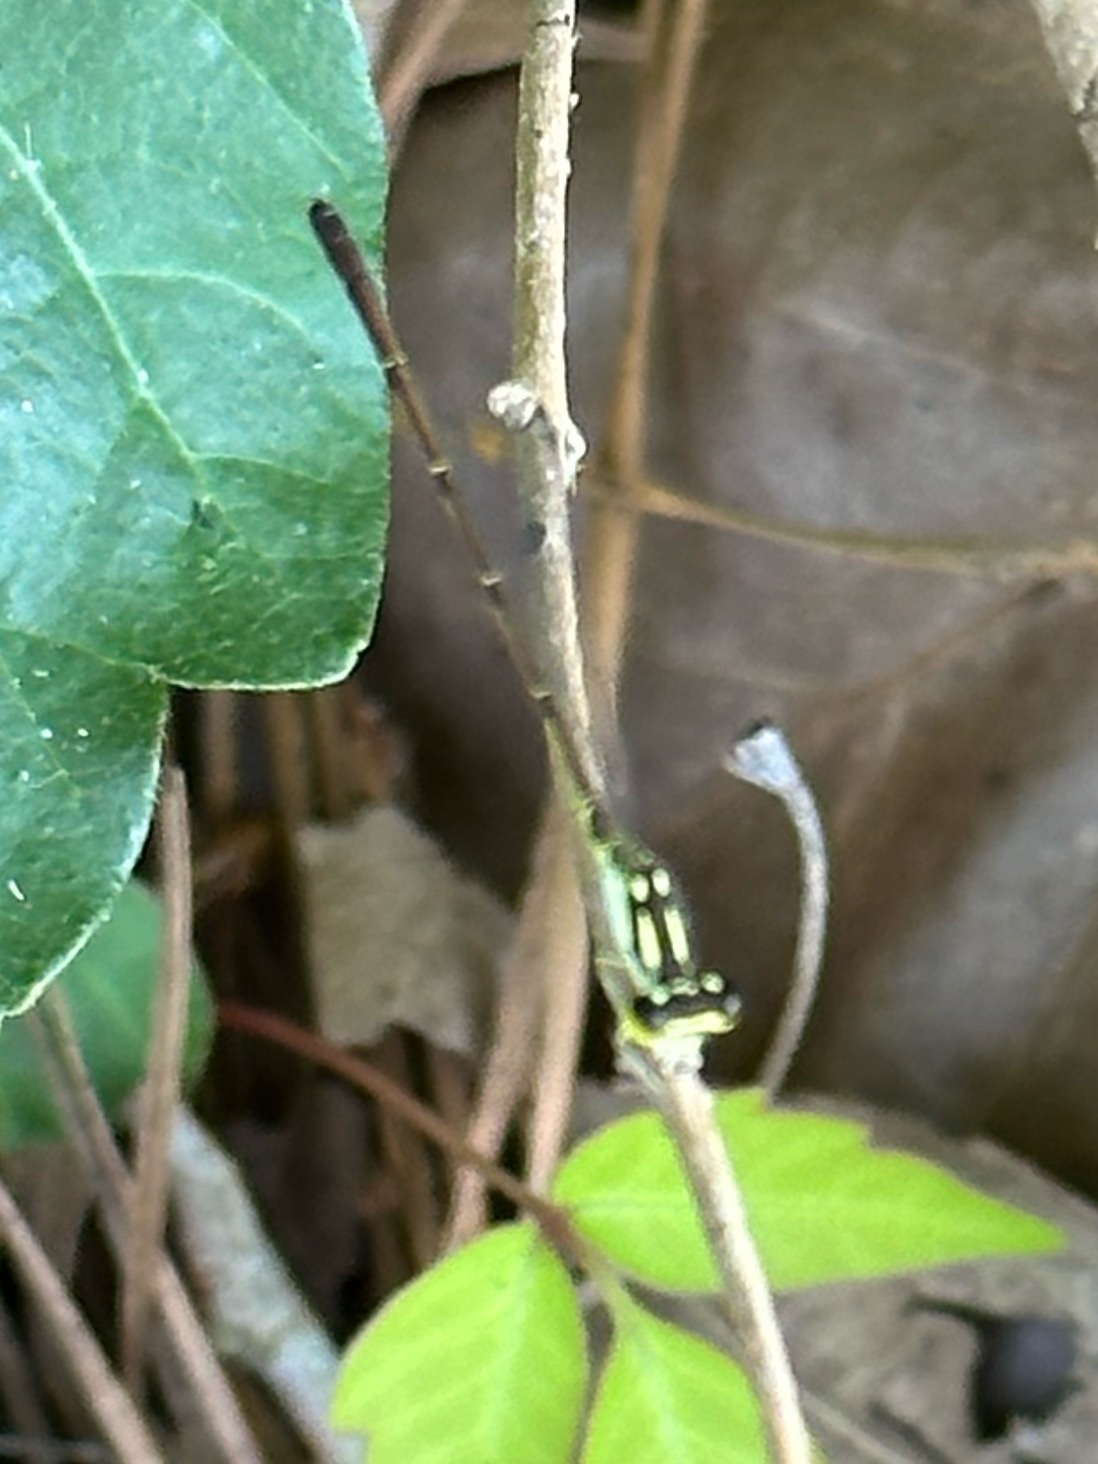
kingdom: Animalia
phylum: Arthropoda
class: Insecta
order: Odonata
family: Coenagrionidae
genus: Ischnura
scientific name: Ischnura posita
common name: Fragile forktail
